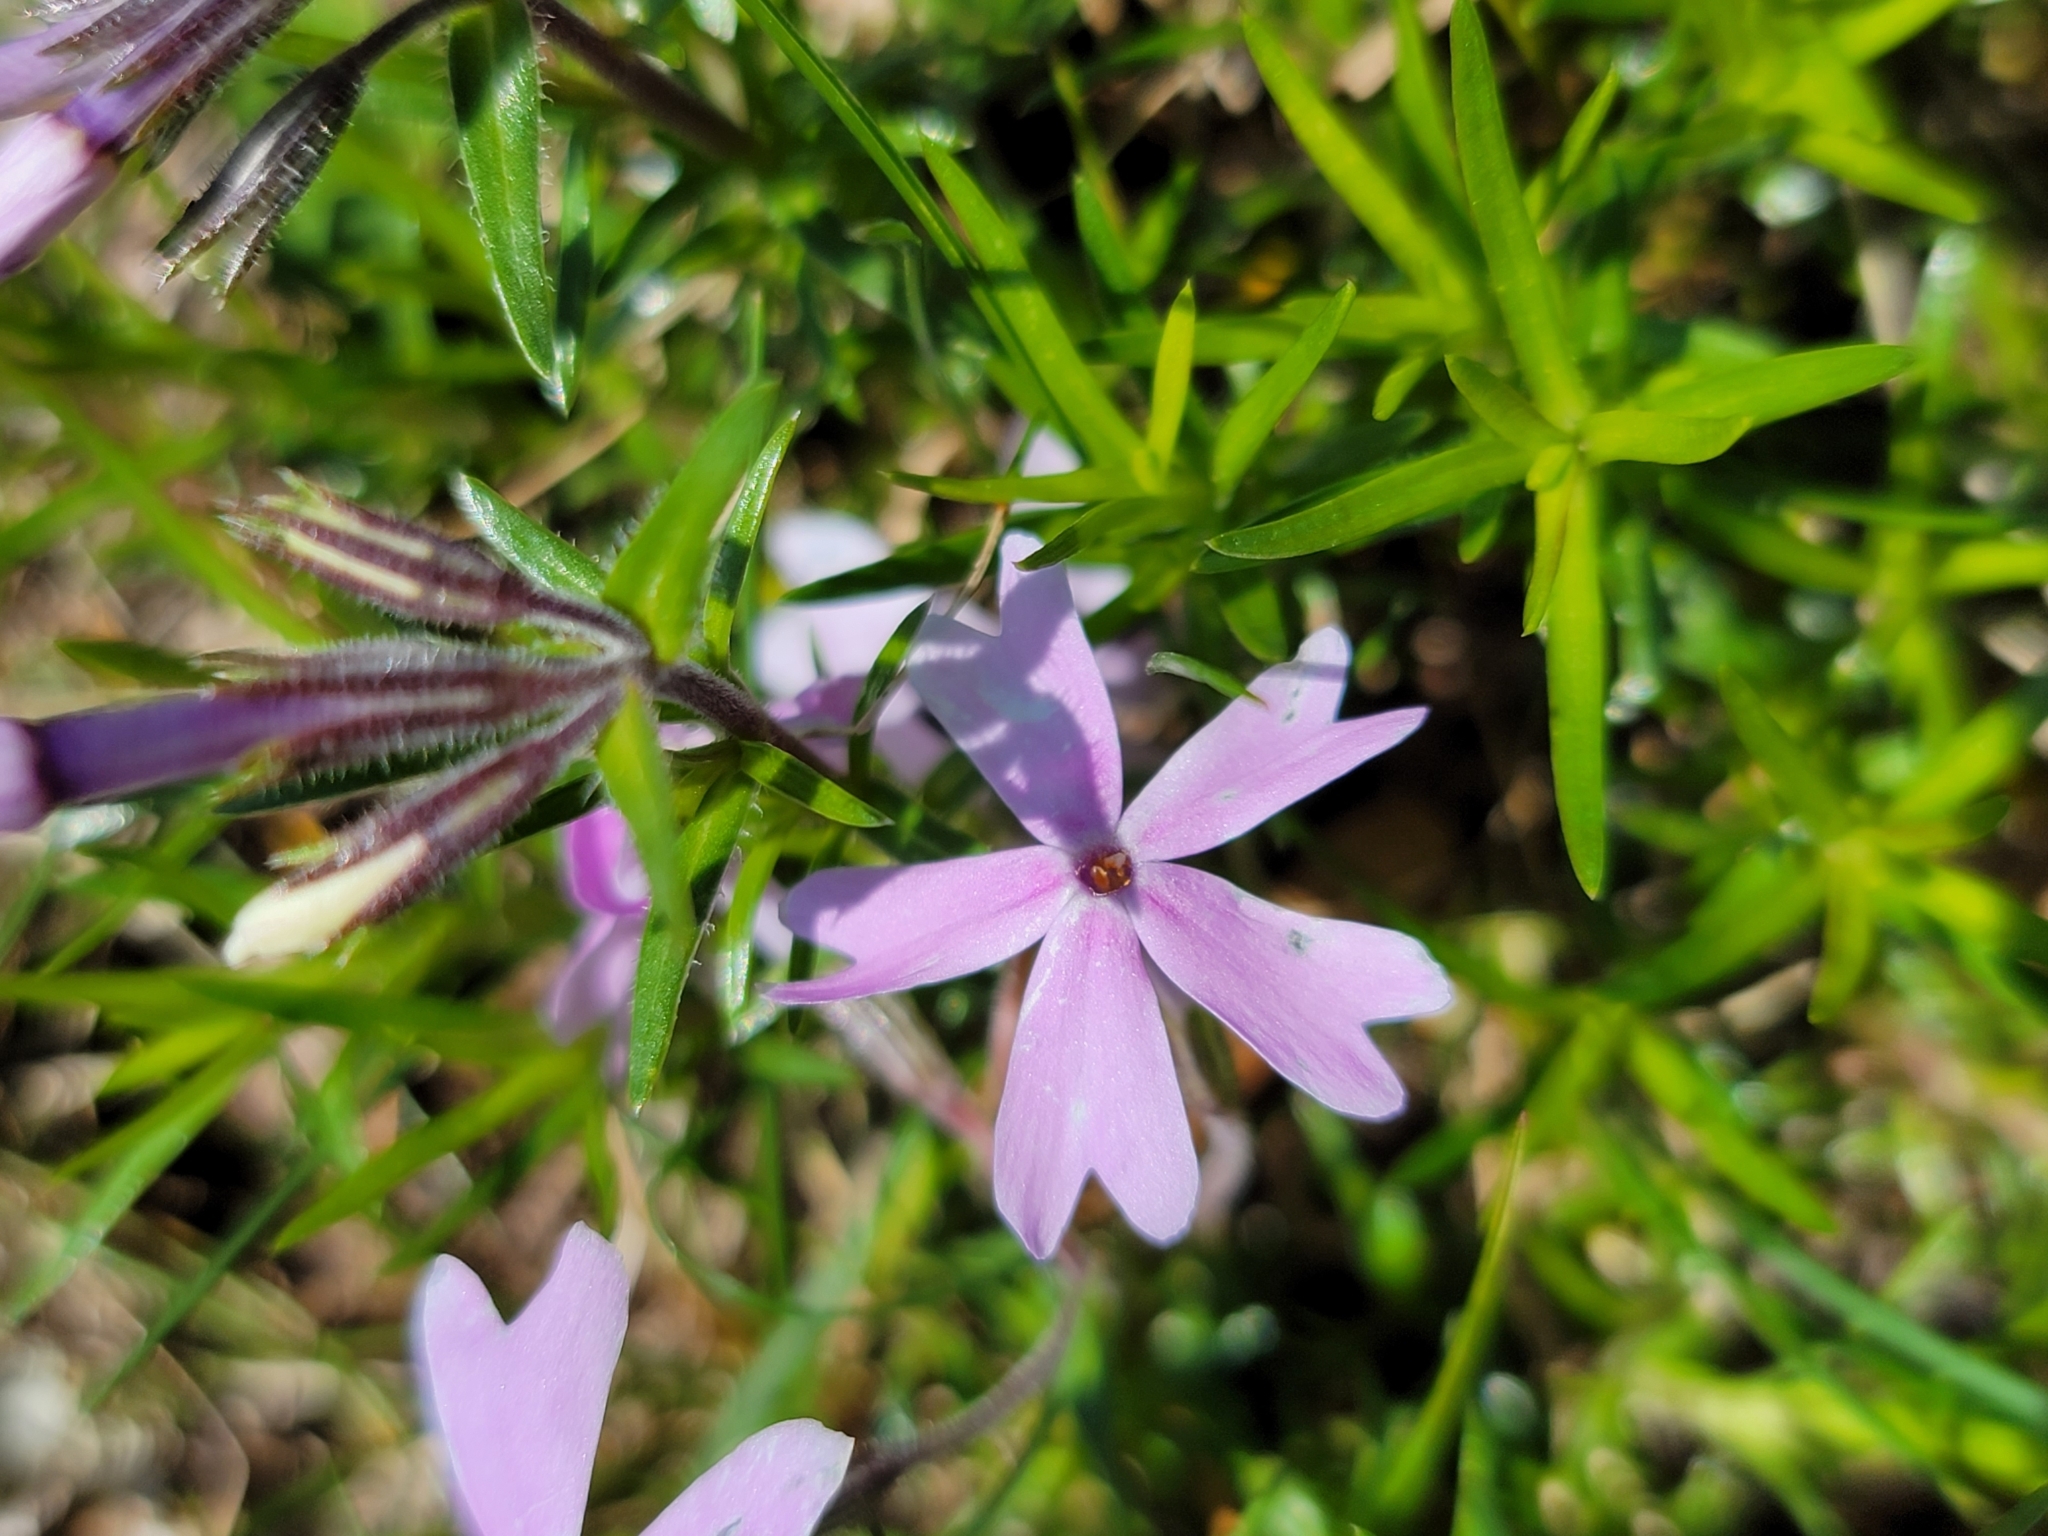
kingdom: Plantae
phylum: Tracheophyta
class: Magnoliopsida
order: Ericales
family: Polemoniaceae
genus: Phlox
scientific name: Phlox subulata
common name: Moss phlox
